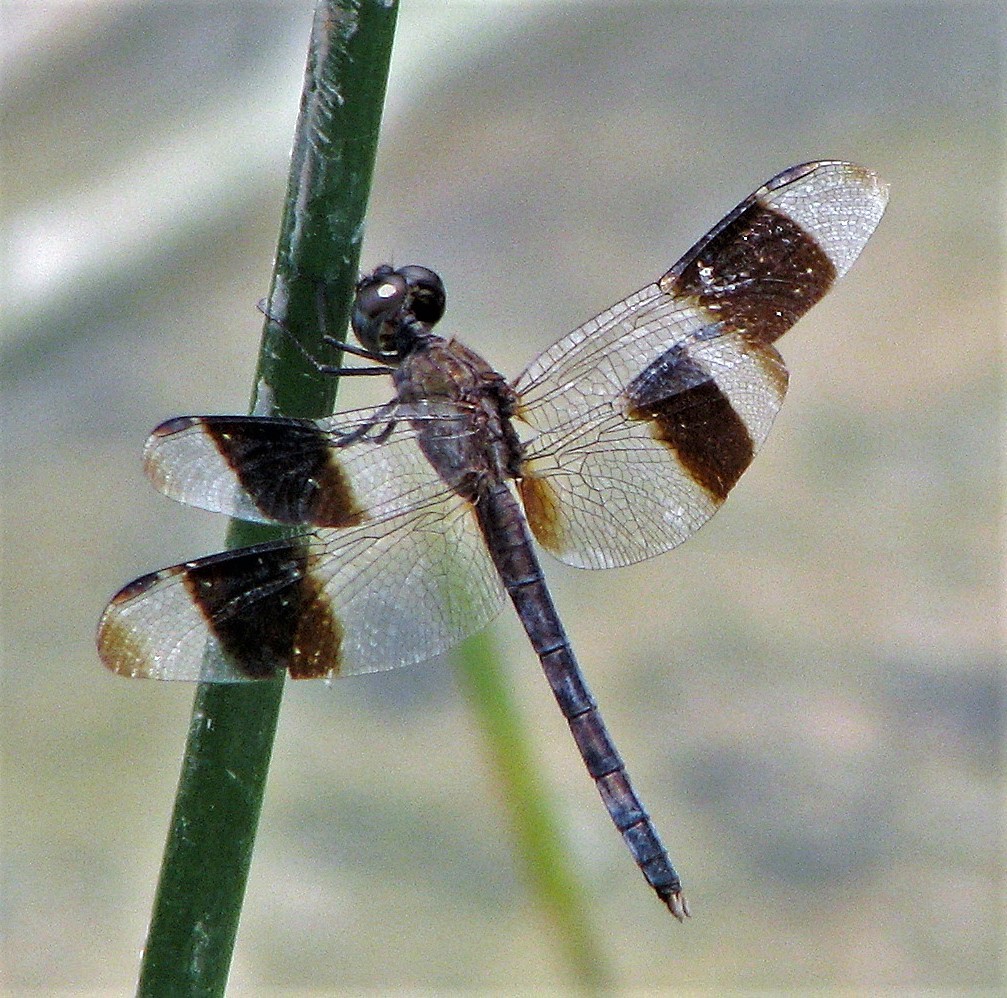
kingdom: Animalia
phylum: Arthropoda
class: Insecta
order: Odonata
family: Libellulidae
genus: Erythrodiplax
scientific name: Erythrodiplax umbrata
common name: Band-winged dragonlet
